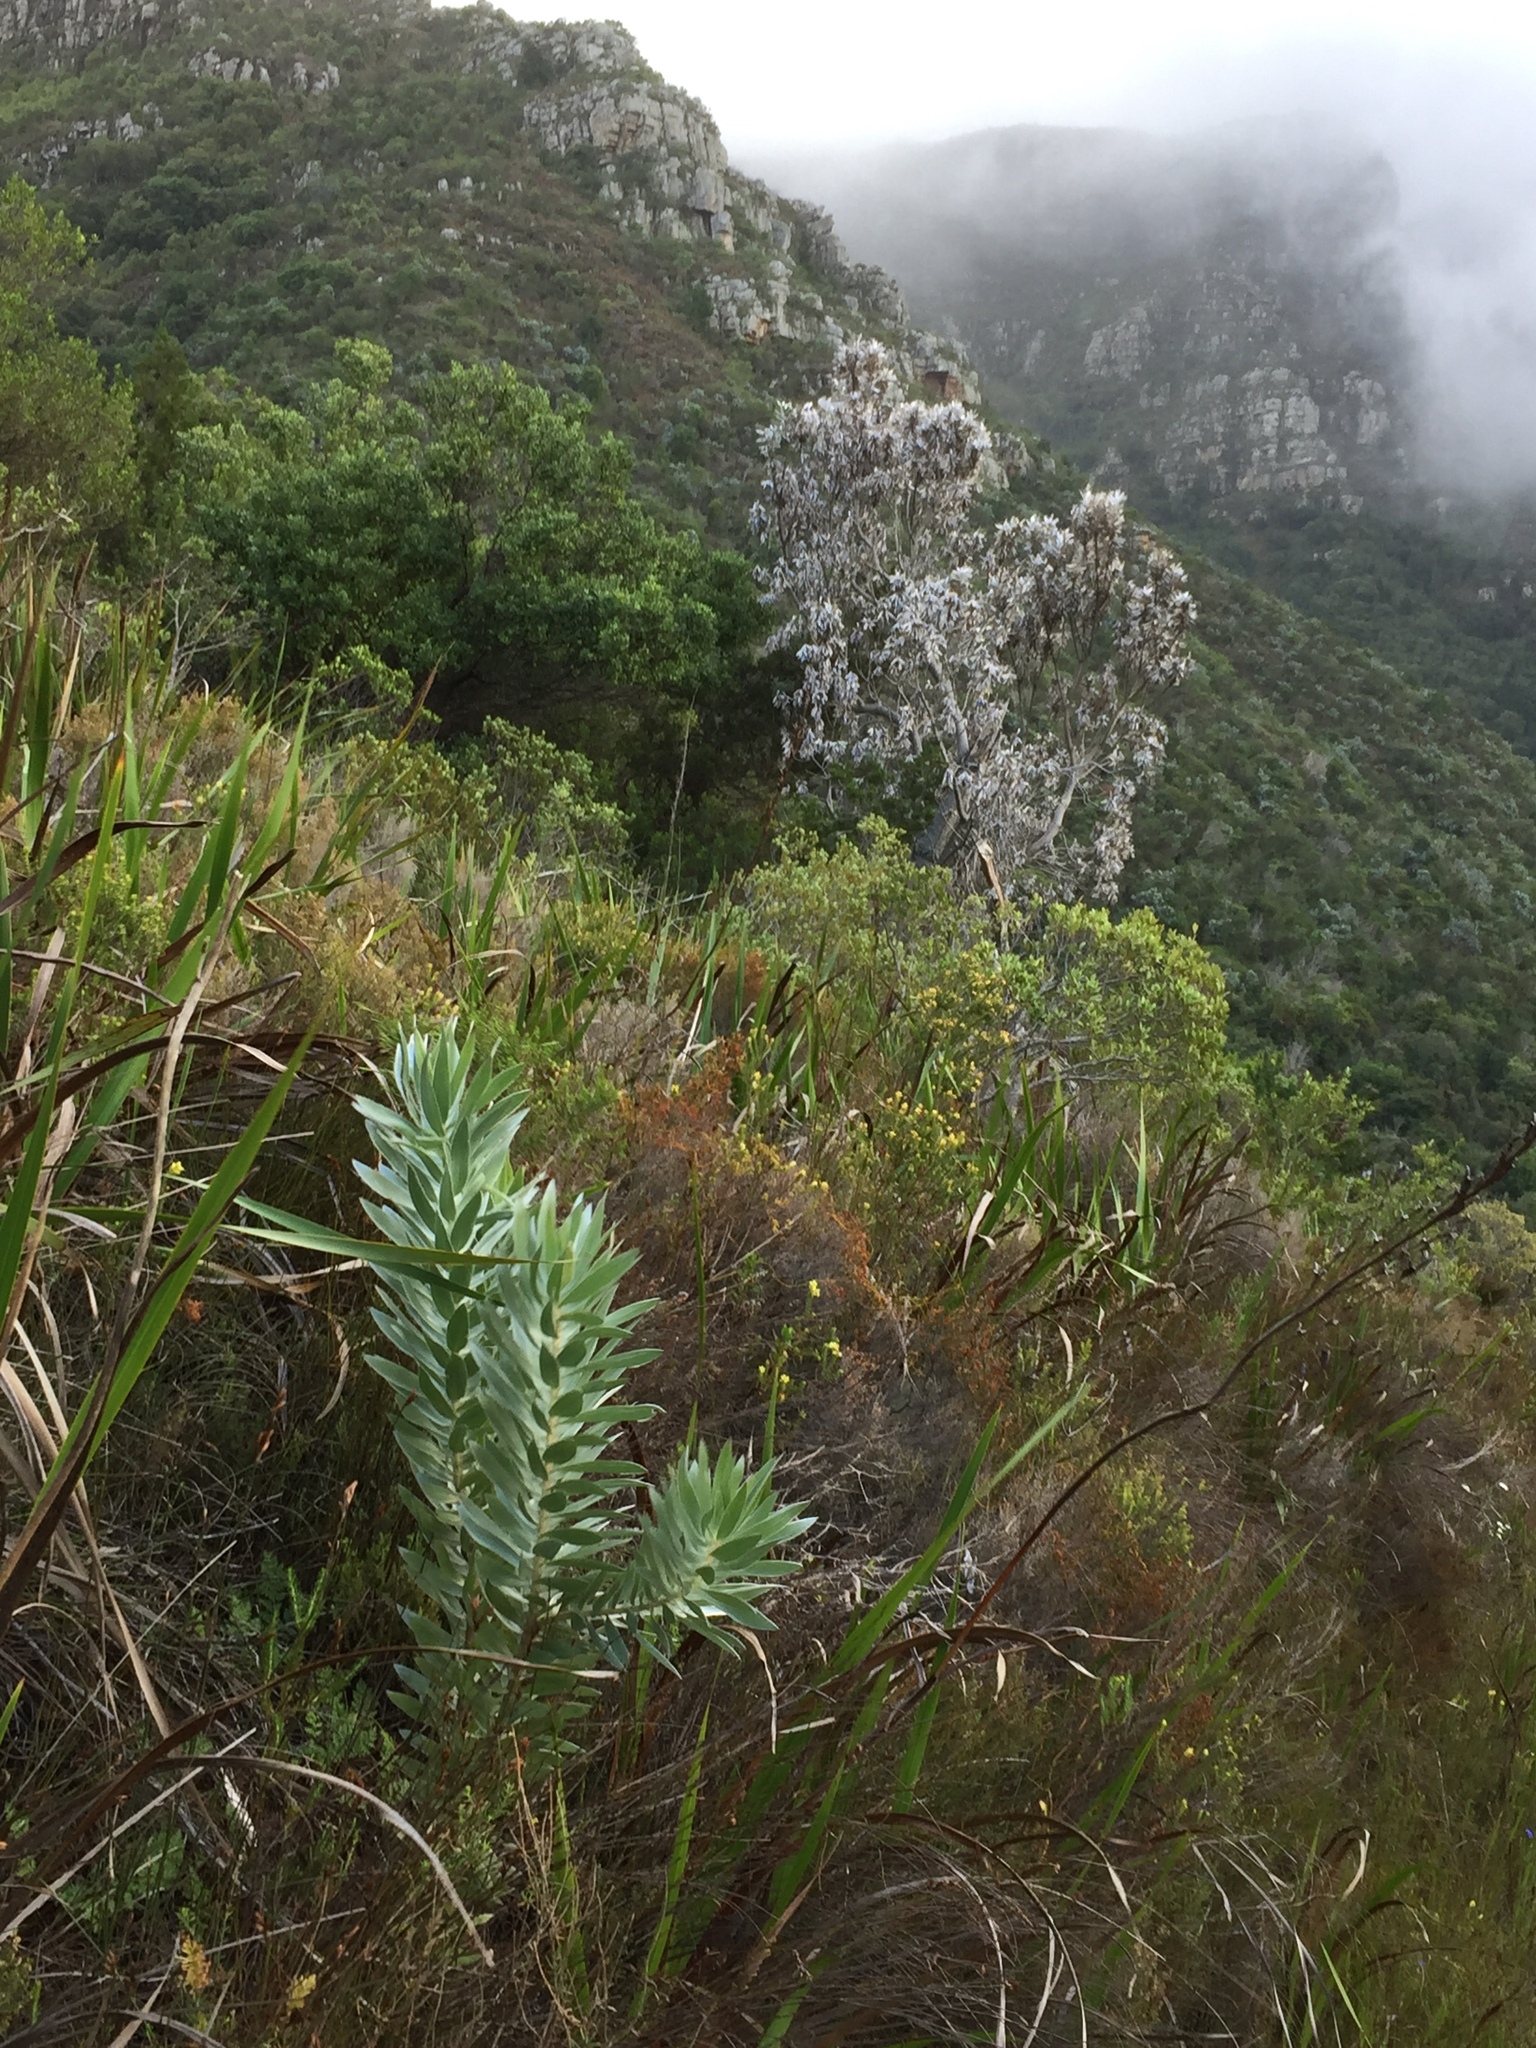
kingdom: Plantae
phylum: Tracheophyta
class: Magnoliopsida
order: Proteales
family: Proteaceae
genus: Leucadendron
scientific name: Leucadendron argenteum
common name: Cape silver tree
